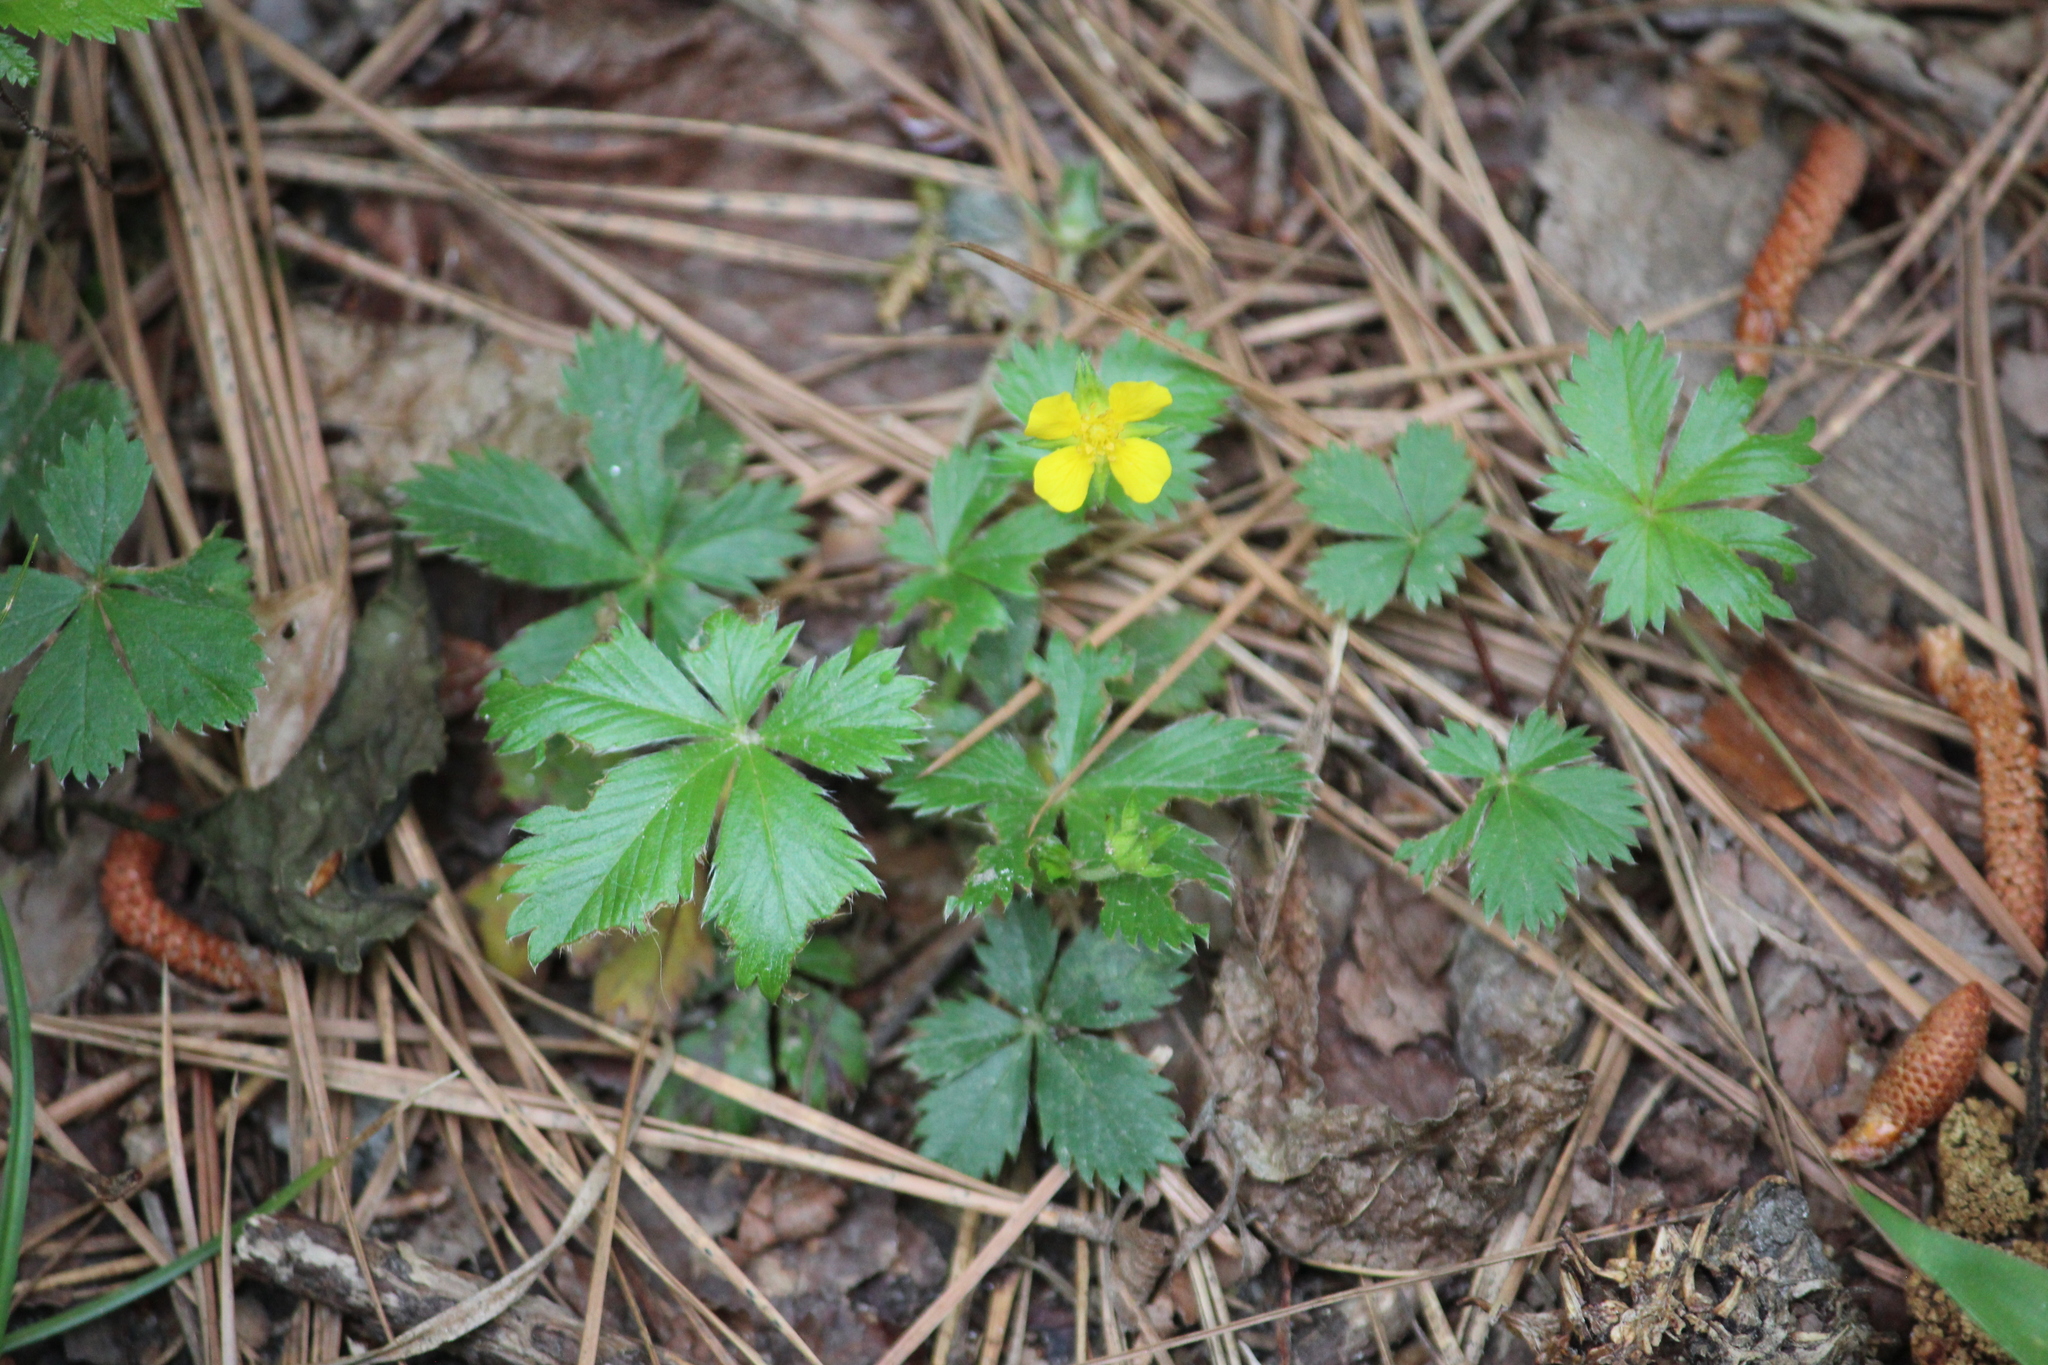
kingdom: Plantae
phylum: Tracheophyta
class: Magnoliopsida
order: Rosales
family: Rosaceae
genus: Potentilla
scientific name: Potentilla canadensis
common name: Canada cinquefoil
